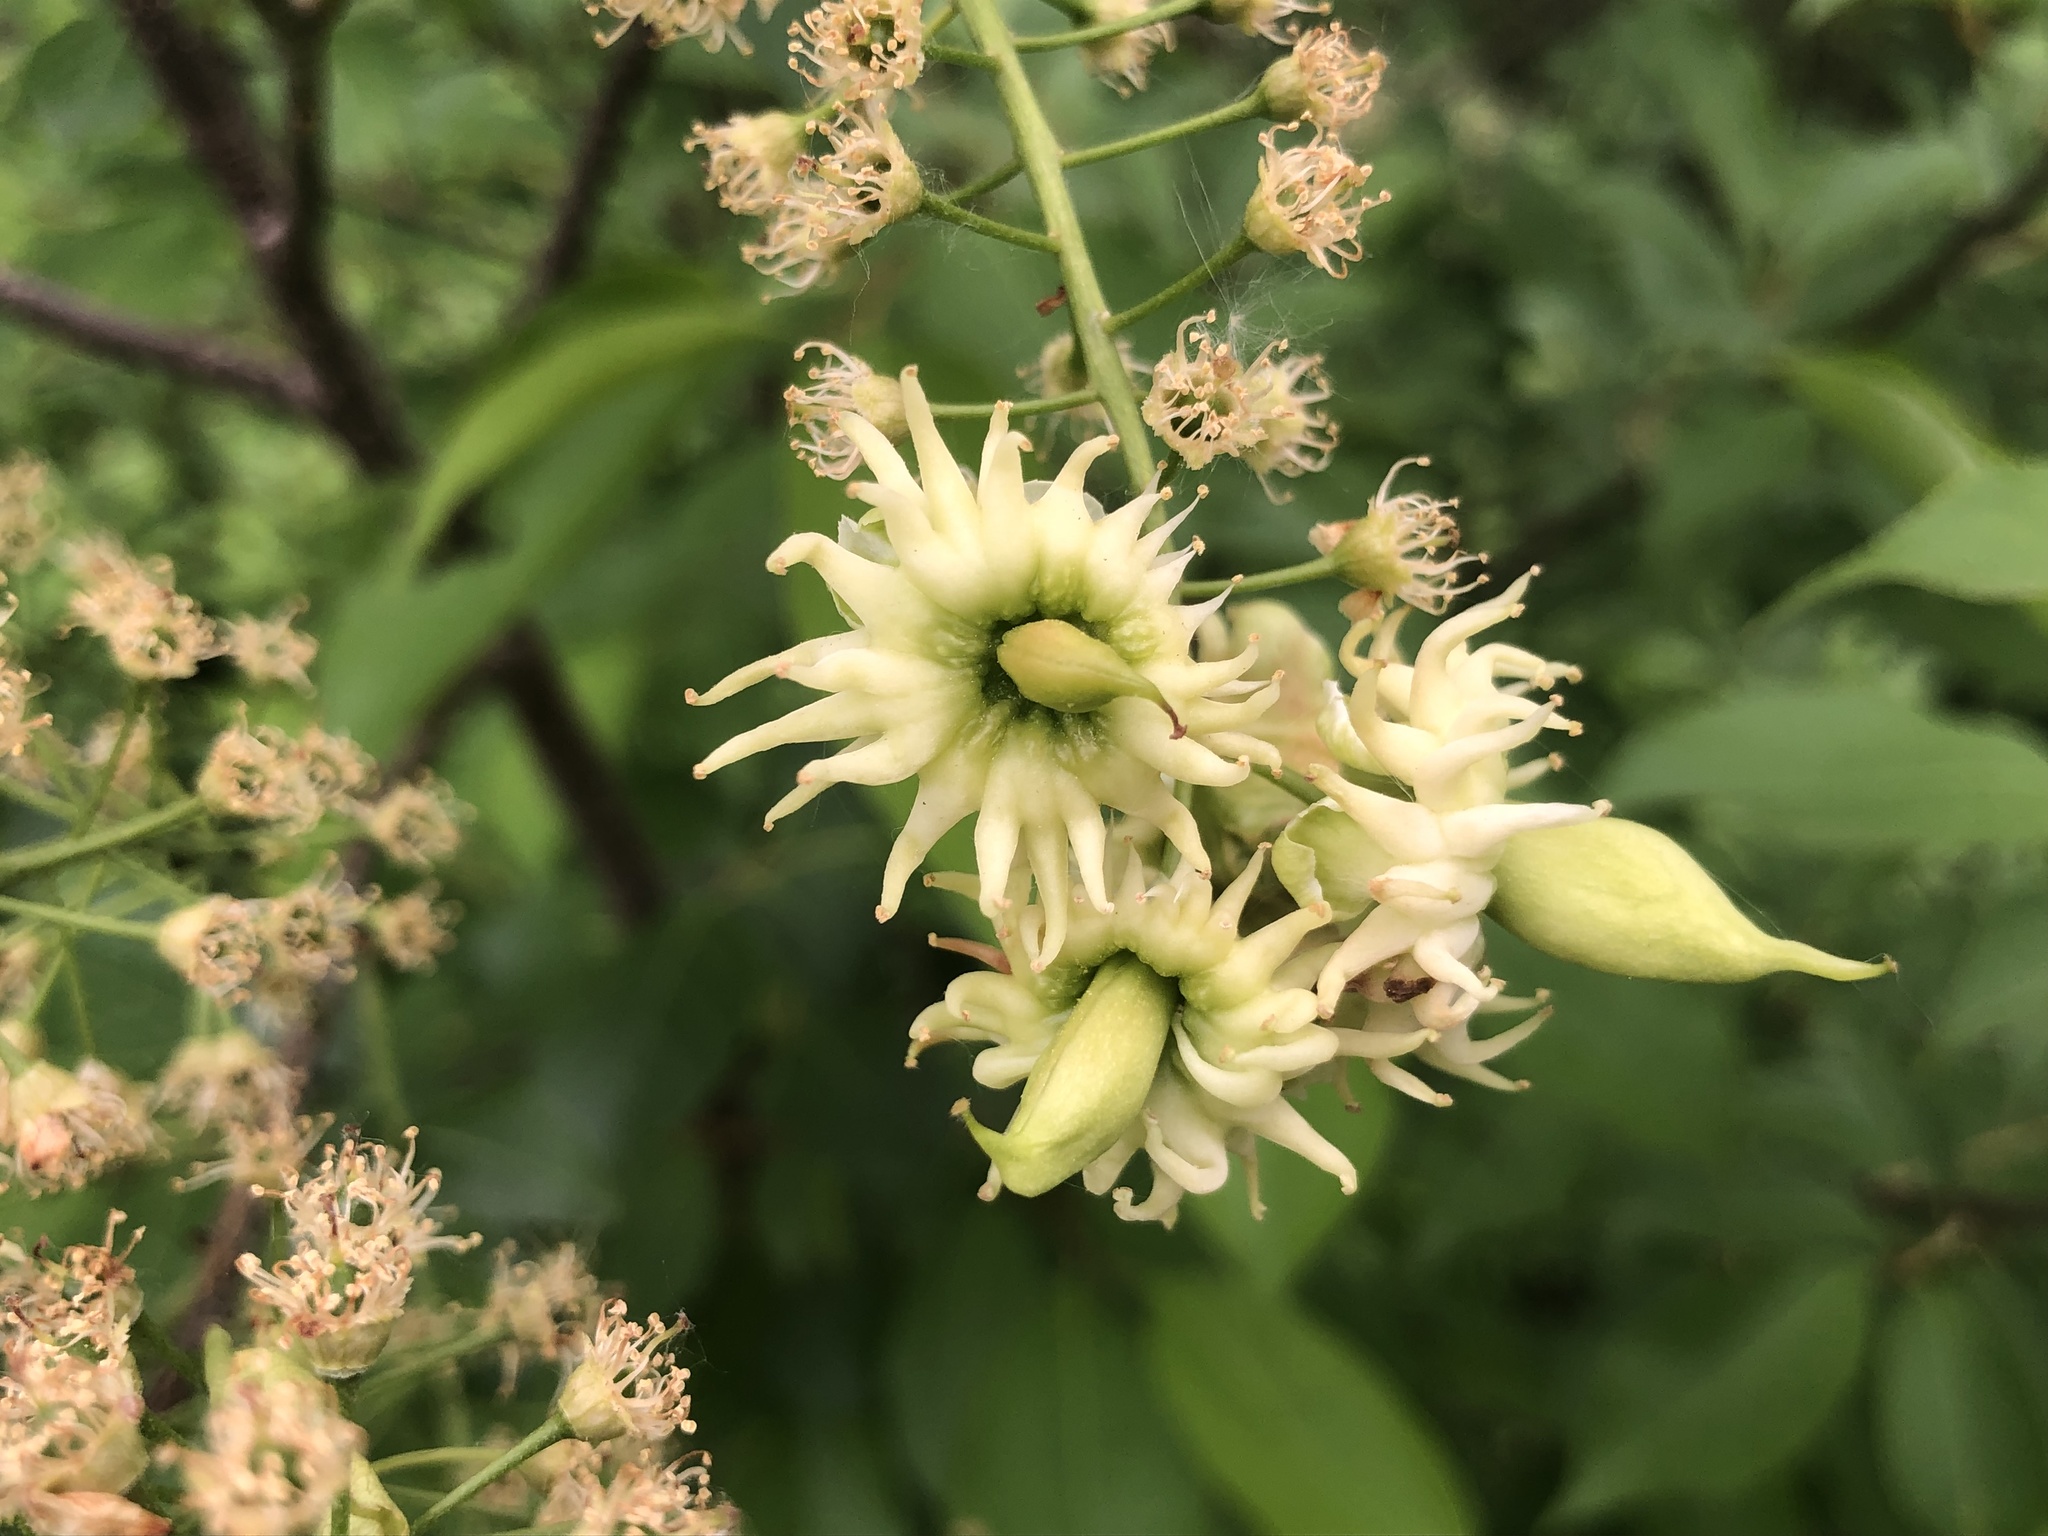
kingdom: Fungi
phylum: Ascomycota
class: Taphrinomycetes
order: Taphrinales
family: Taphrinaceae
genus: Taphrina
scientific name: Taphrina confusa
